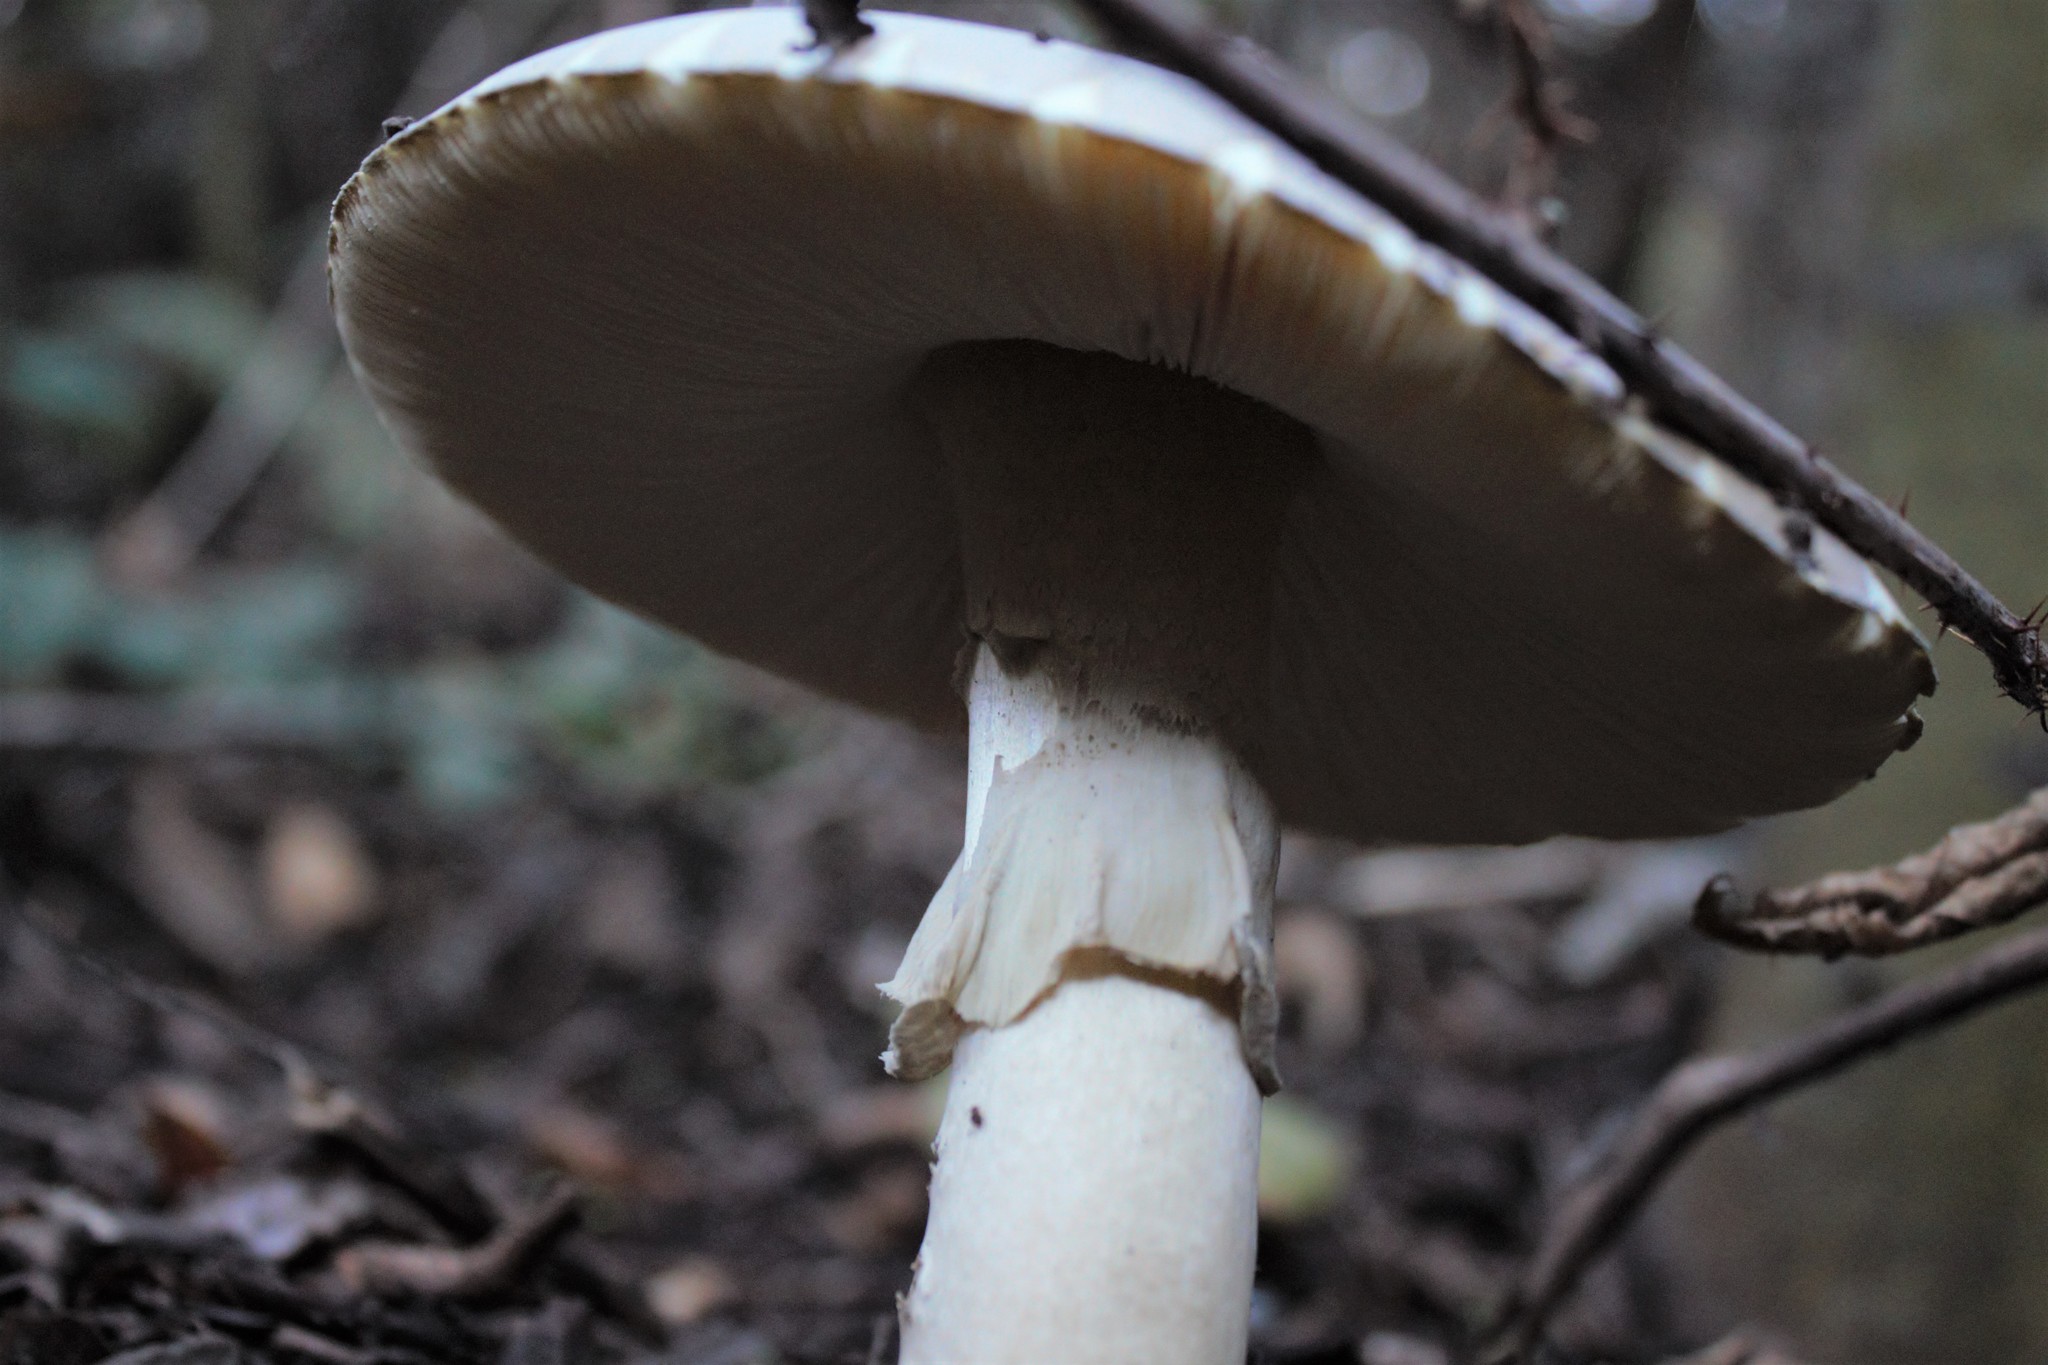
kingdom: Fungi
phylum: Basidiomycota
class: Agaricomycetes
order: Agaricales
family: Amanitaceae
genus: Amanita
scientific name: Amanita phalloides
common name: Death cap
